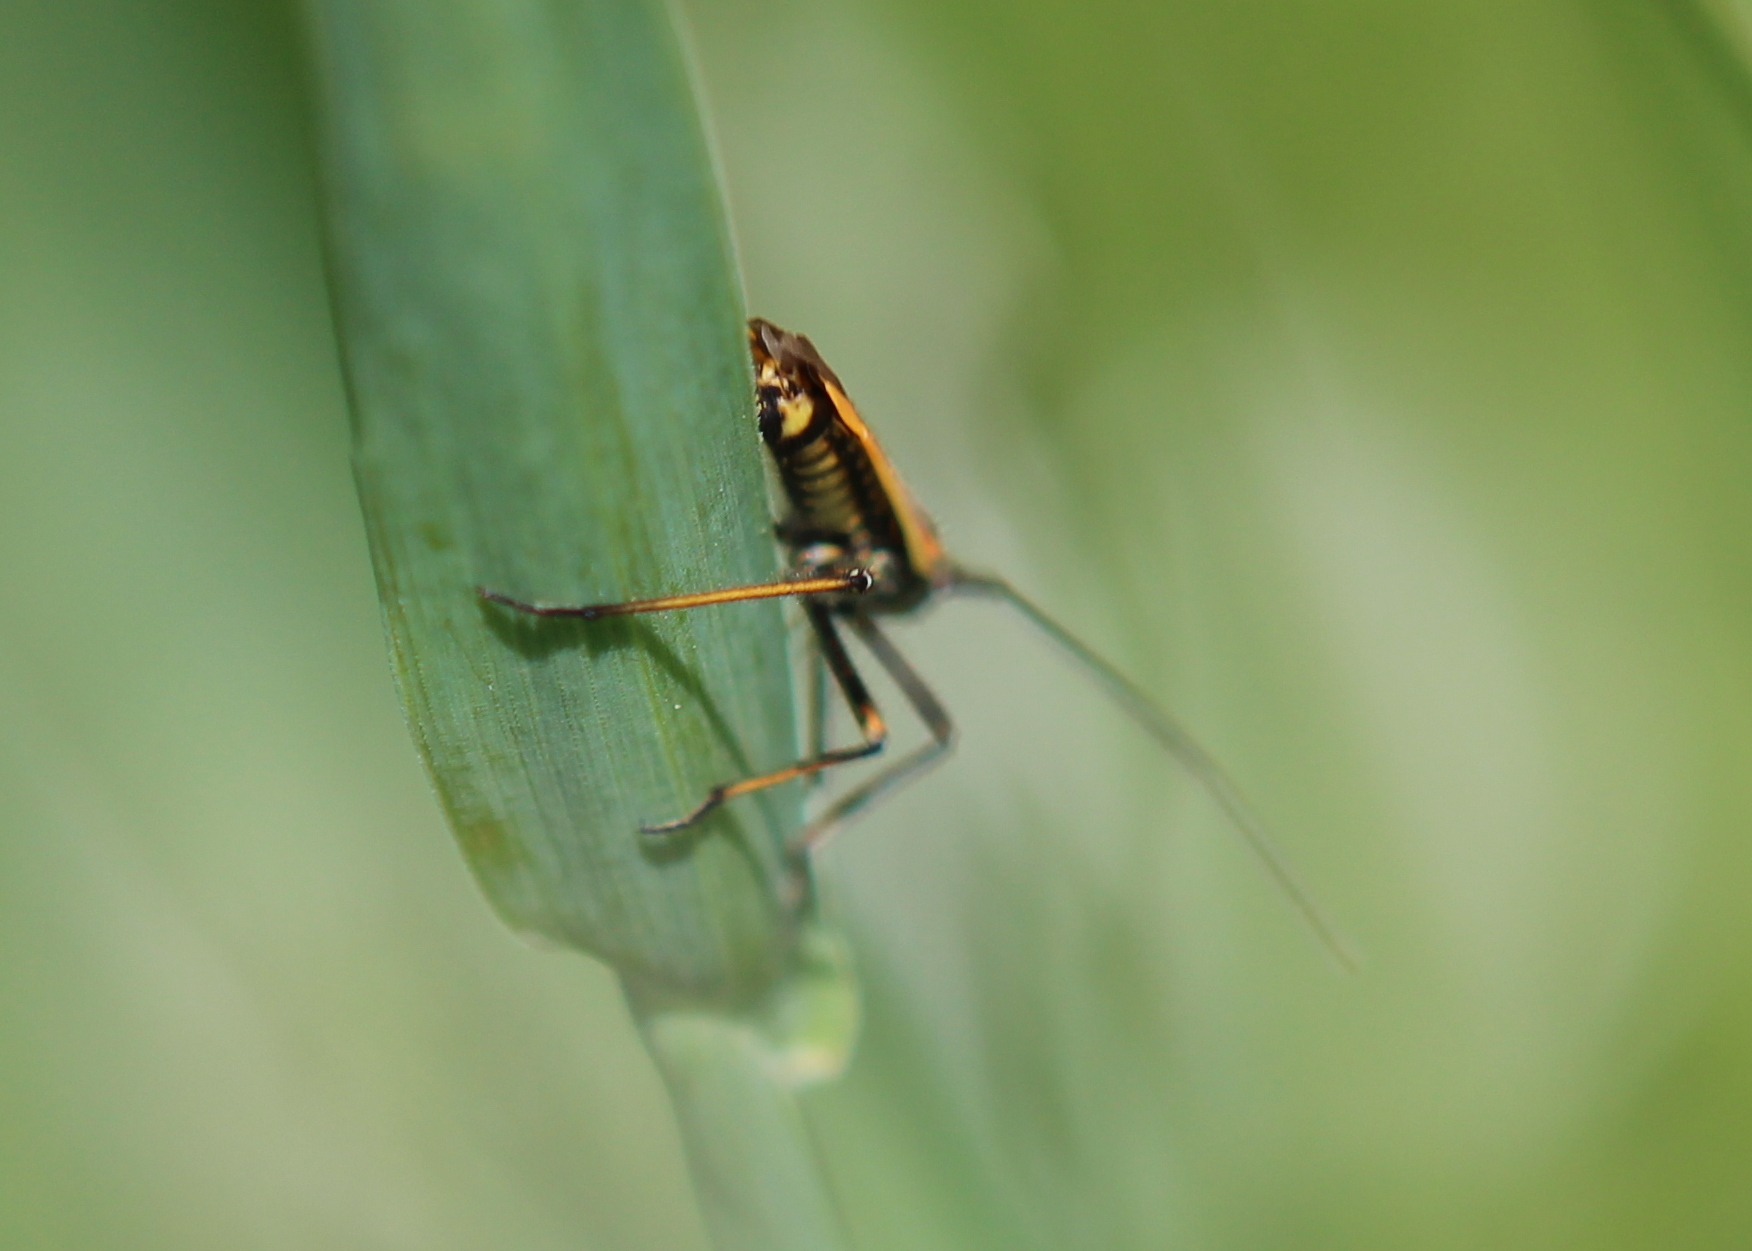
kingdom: Animalia
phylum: Arthropoda
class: Insecta
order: Hemiptera
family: Miridae
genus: Leptopterna
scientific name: Leptopterna dolabrata
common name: Meadow plant bug
